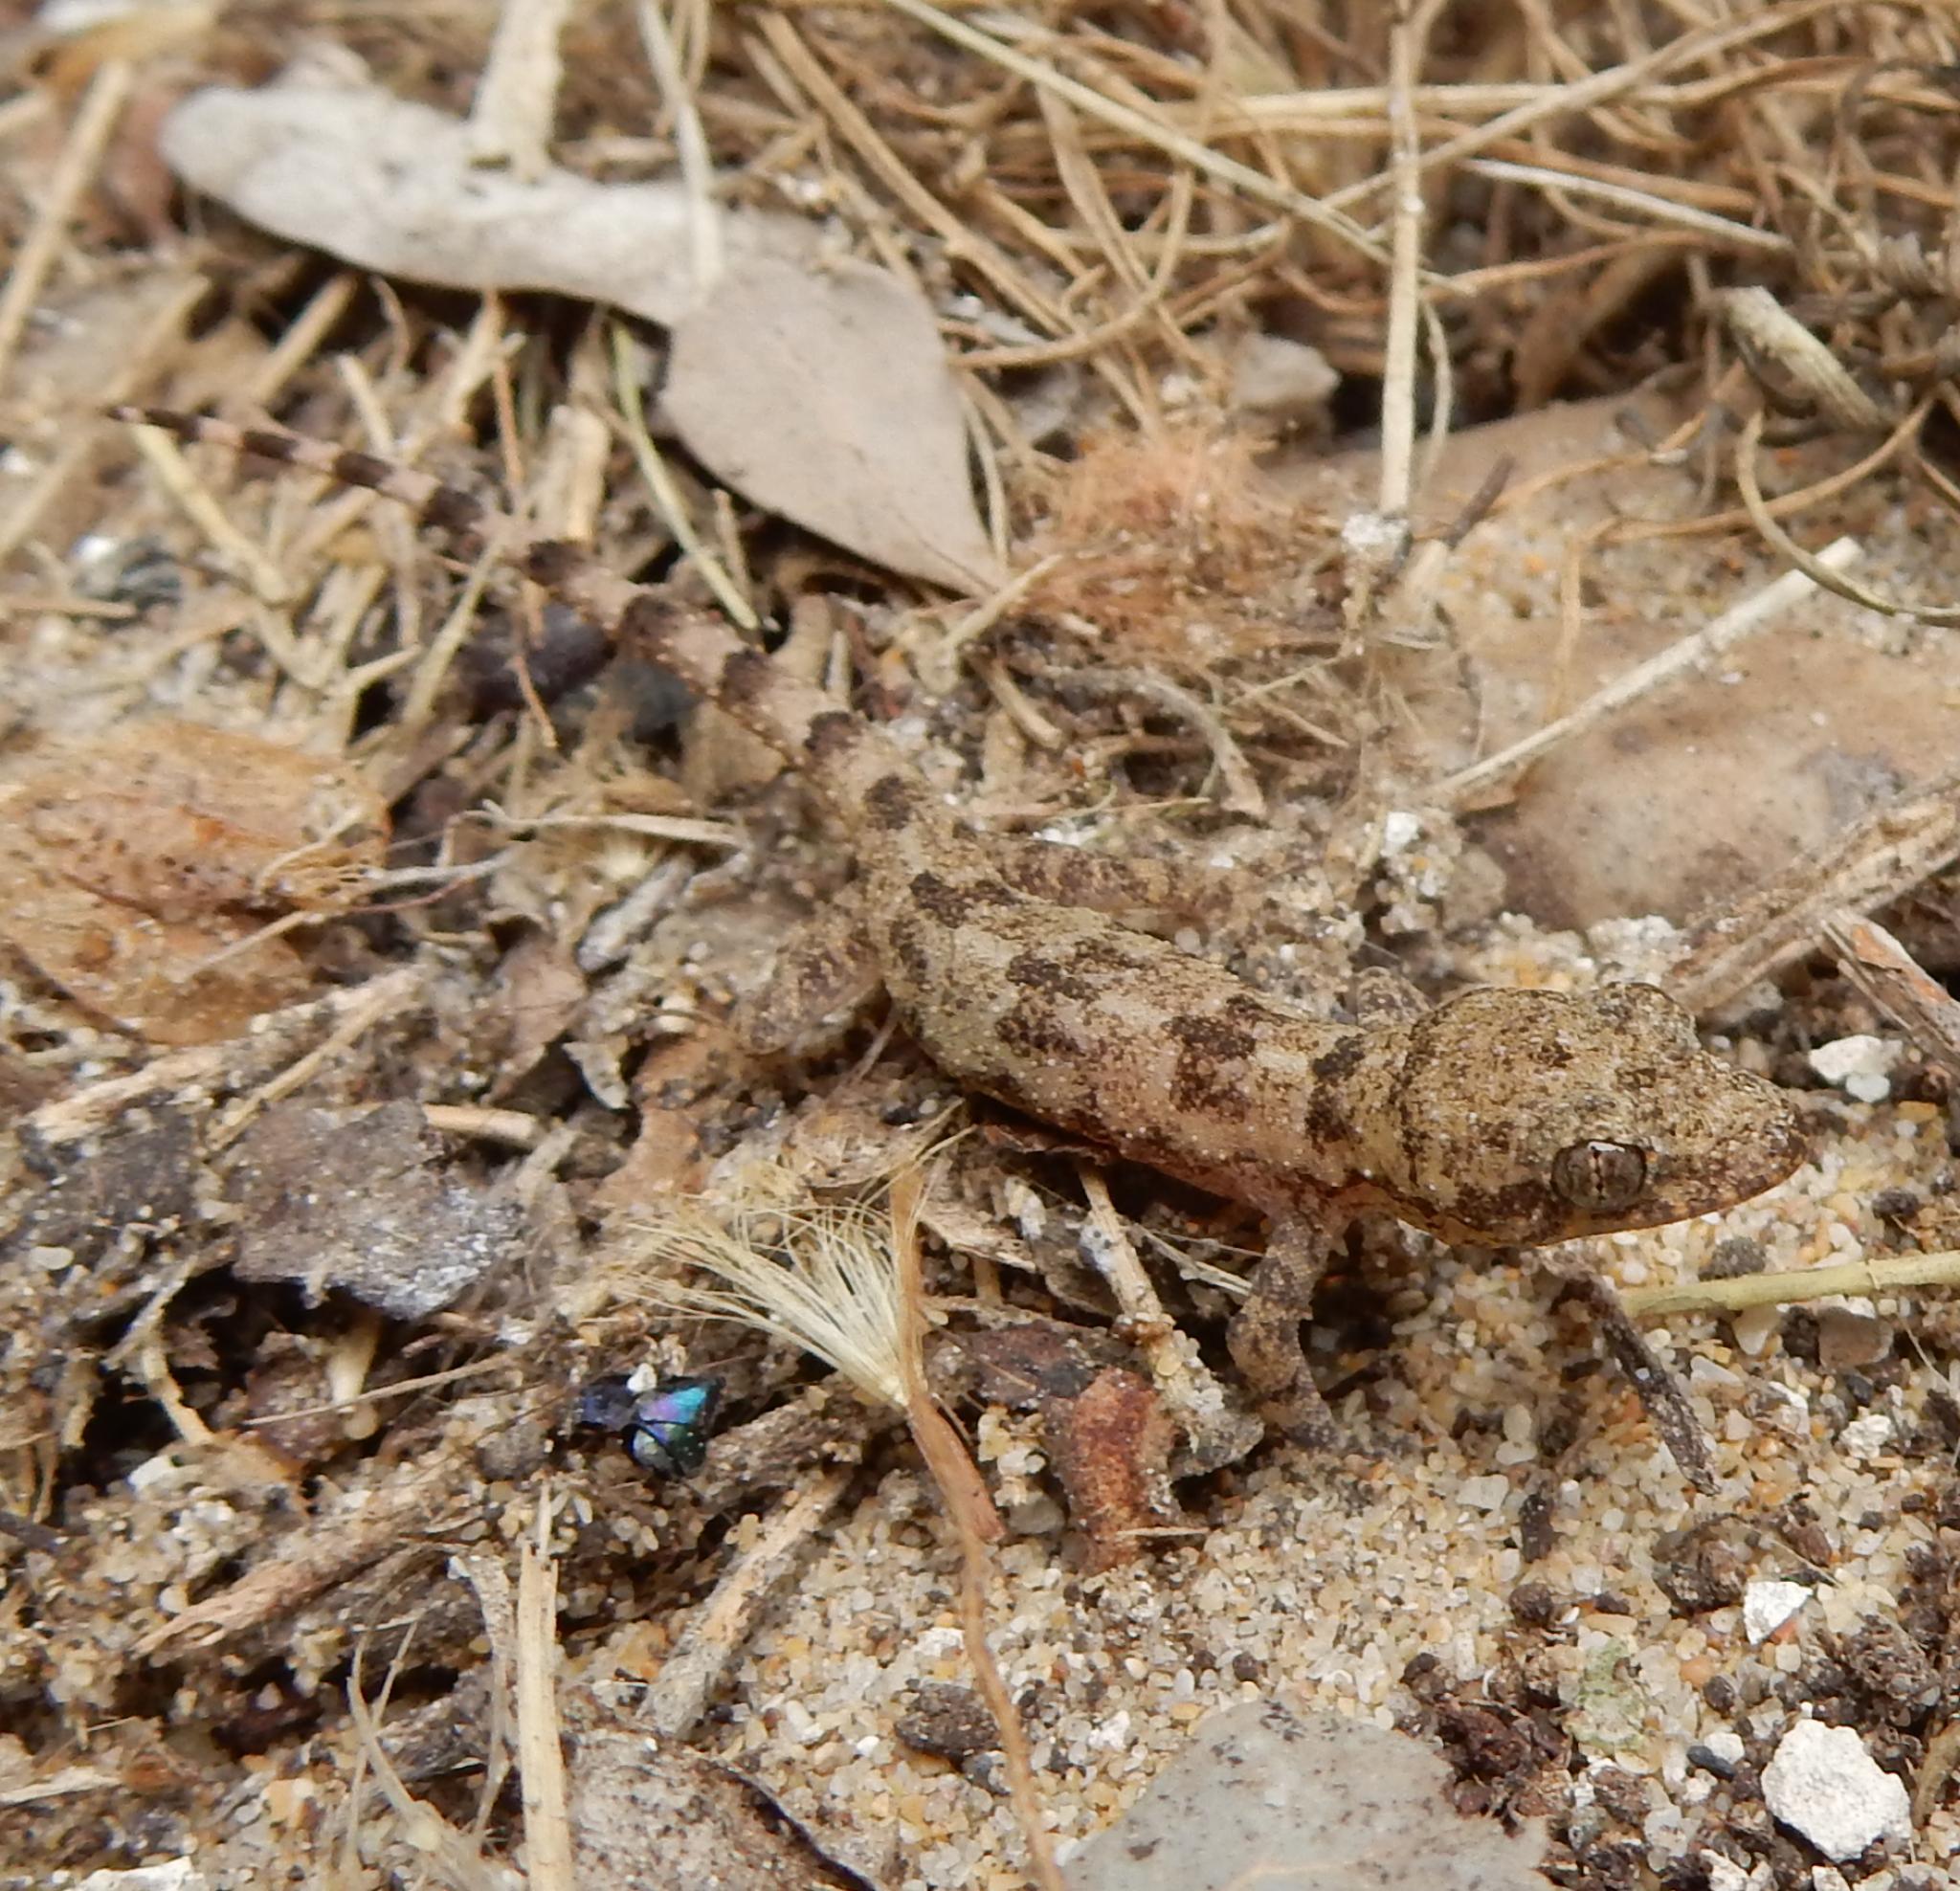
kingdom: Animalia
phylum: Chordata
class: Squamata
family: Gekkonidae
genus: Hemidactylus
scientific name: Hemidactylus mabouia
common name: House gecko
